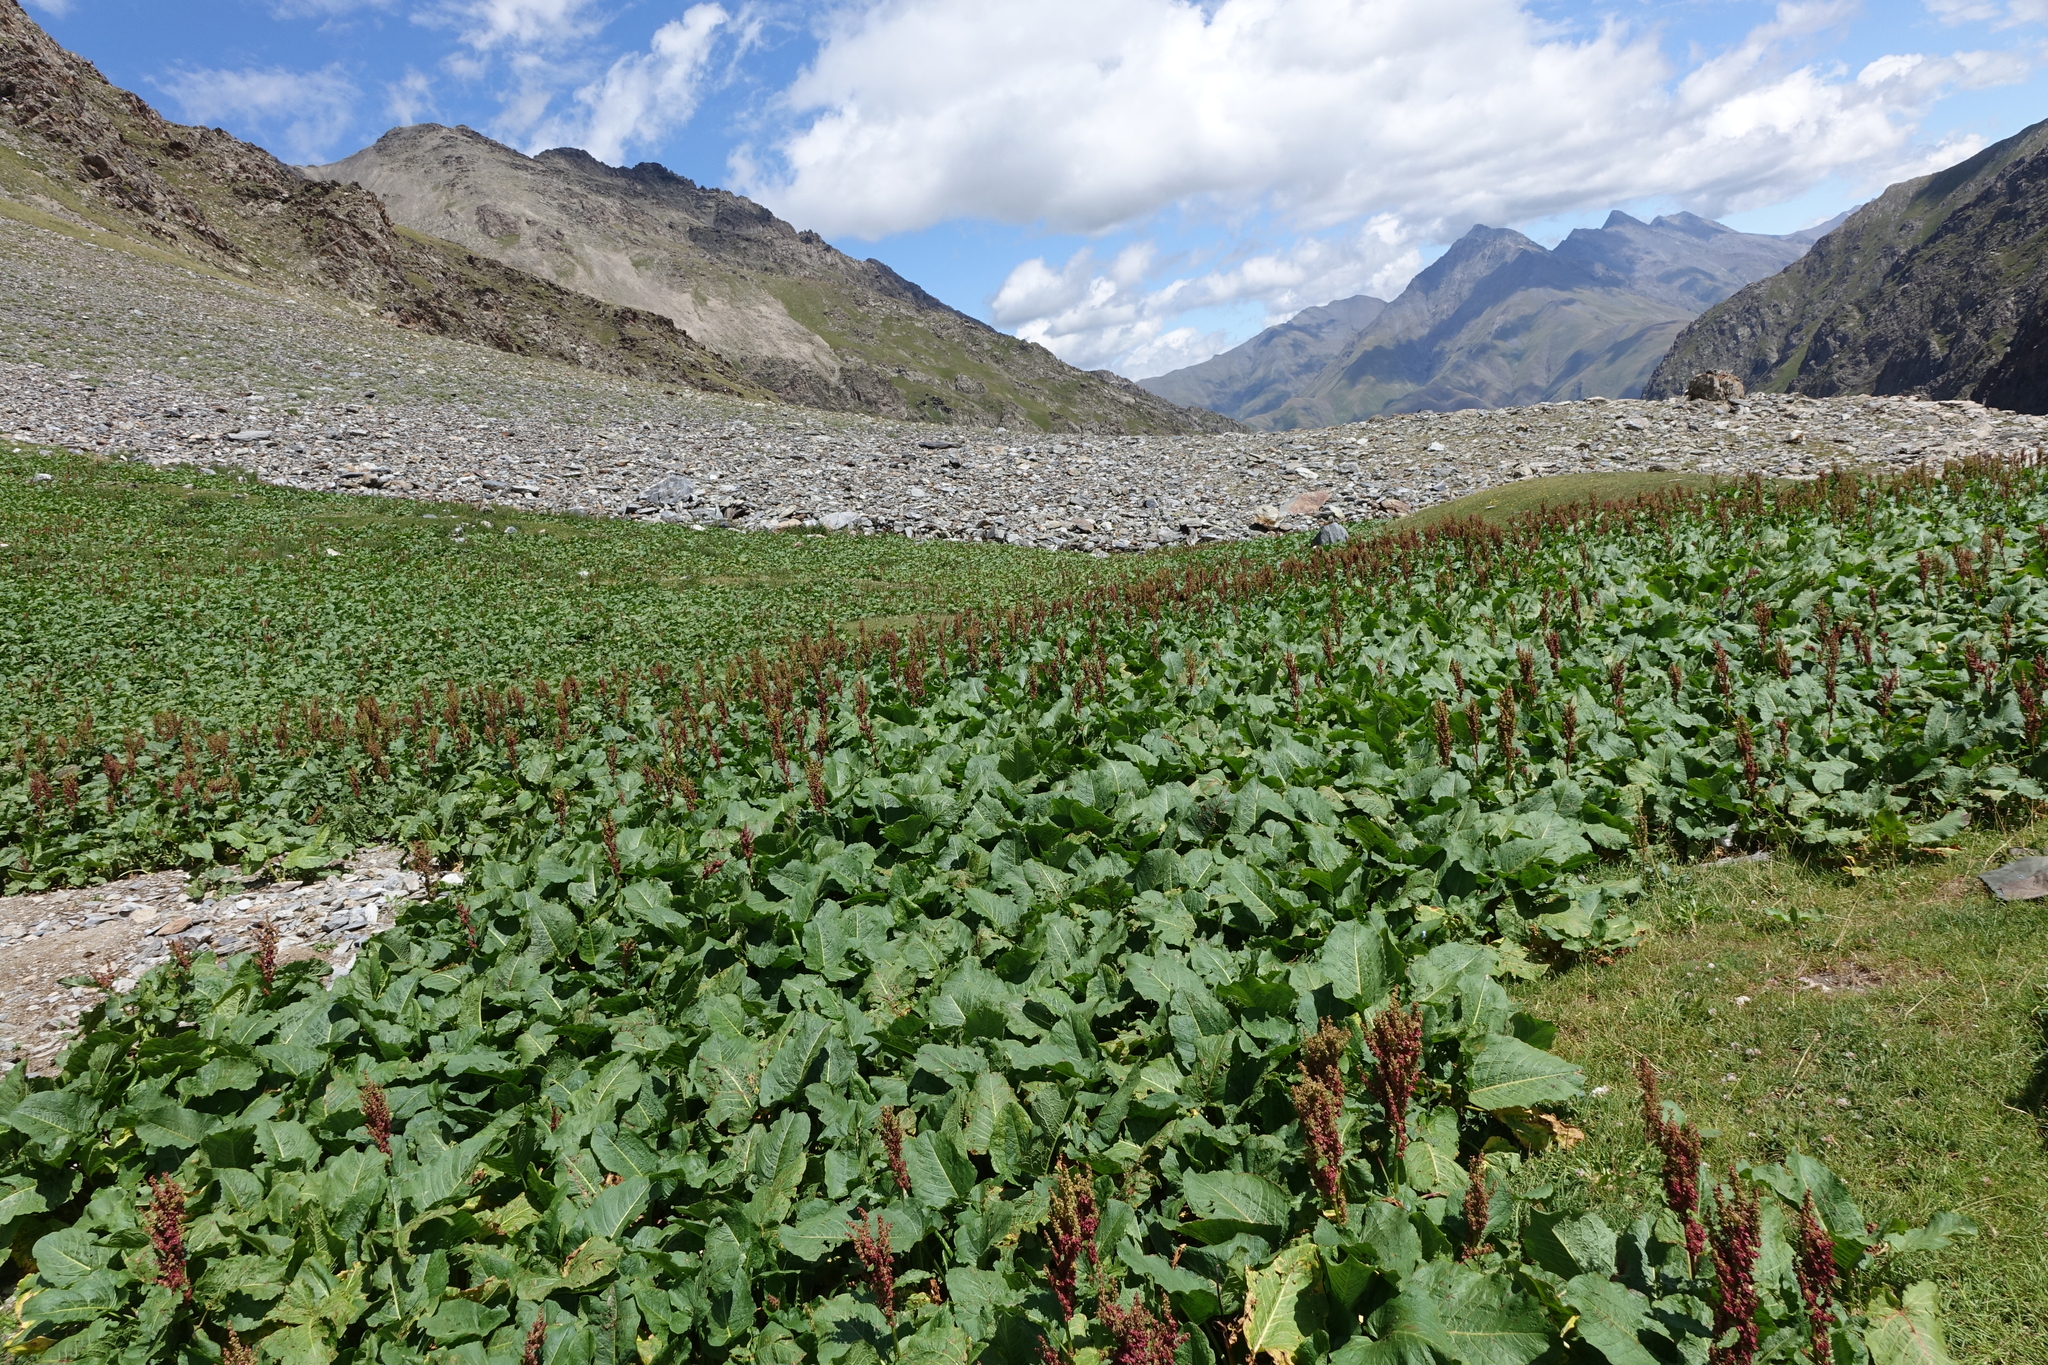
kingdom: Plantae
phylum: Tracheophyta
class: Magnoliopsida
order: Caryophyllales
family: Polygonaceae
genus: Rumex
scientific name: Rumex alpinus
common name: Alpine dock
